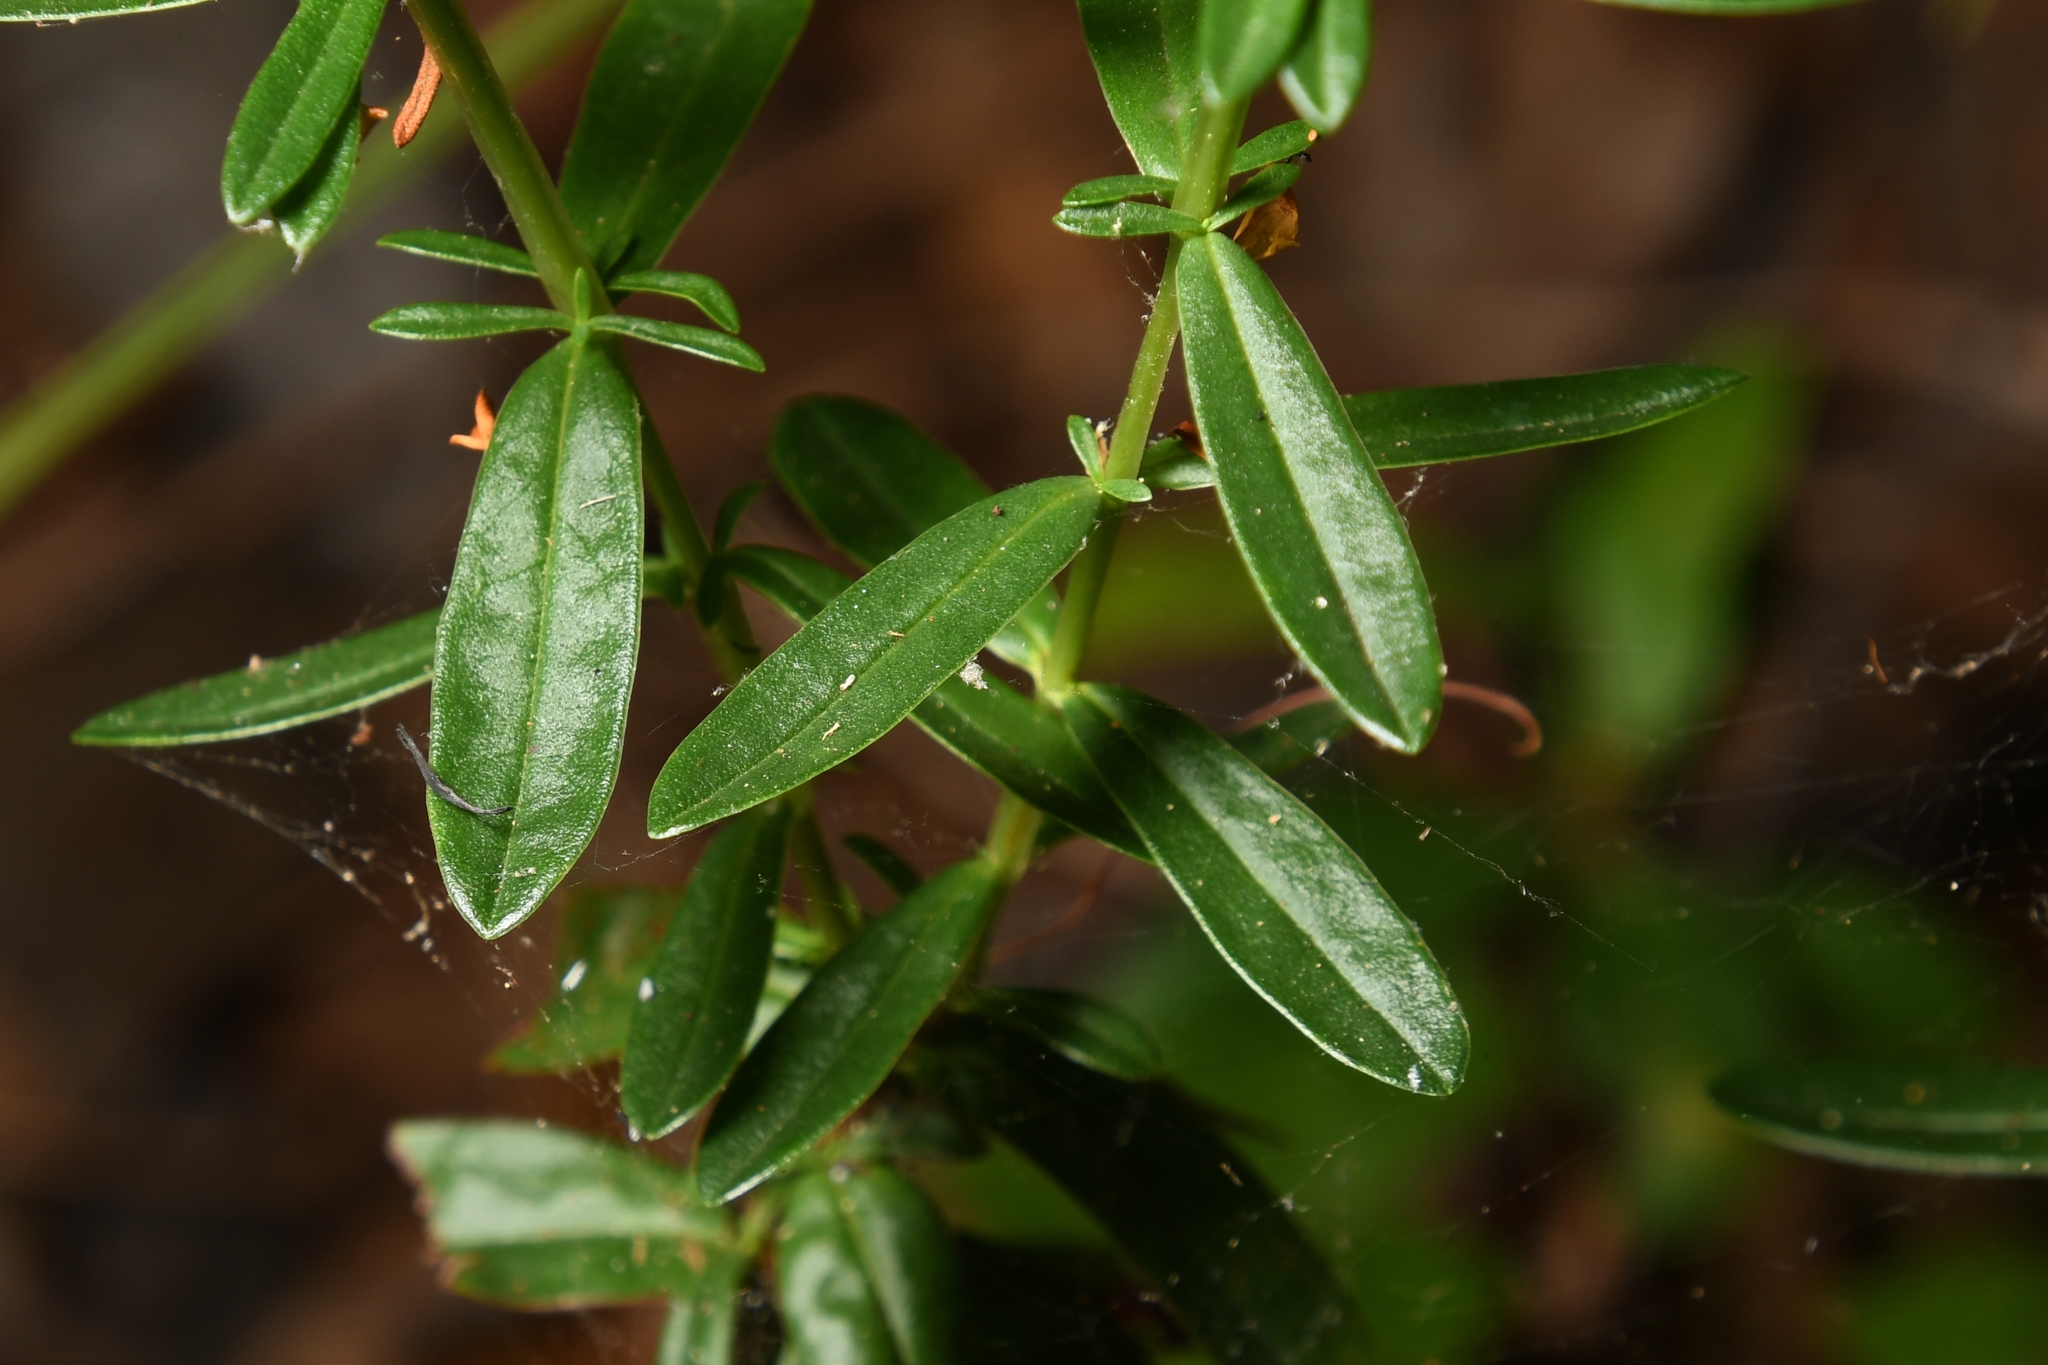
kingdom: Plantae
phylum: Tracheophyta
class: Magnoliopsida
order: Malpighiales
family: Hypericaceae
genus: Hypericum
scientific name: Hypericum cistifolium
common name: Round-pod st. john's-wort
